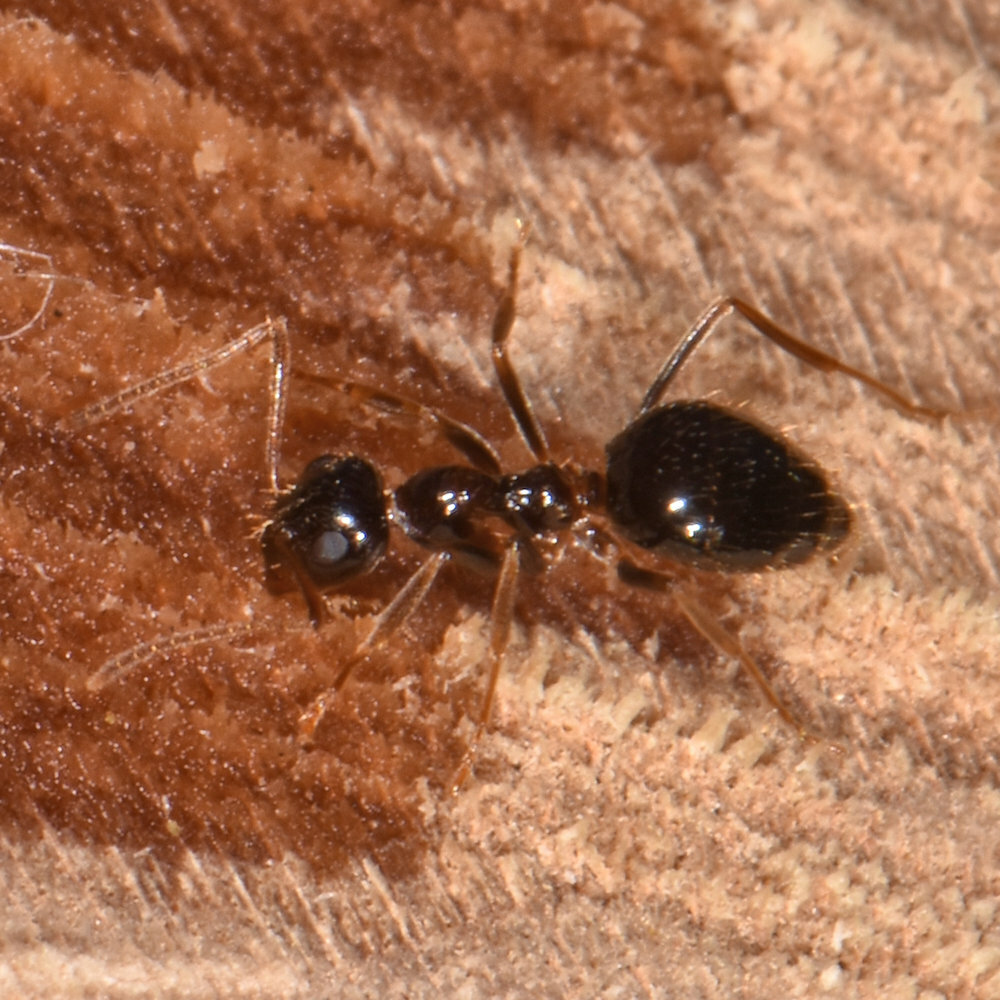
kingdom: Animalia
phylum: Arthropoda
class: Insecta
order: Hymenoptera
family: Formicidae
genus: Prenolepis
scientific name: Prenolepis imparis
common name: Small honey ant
